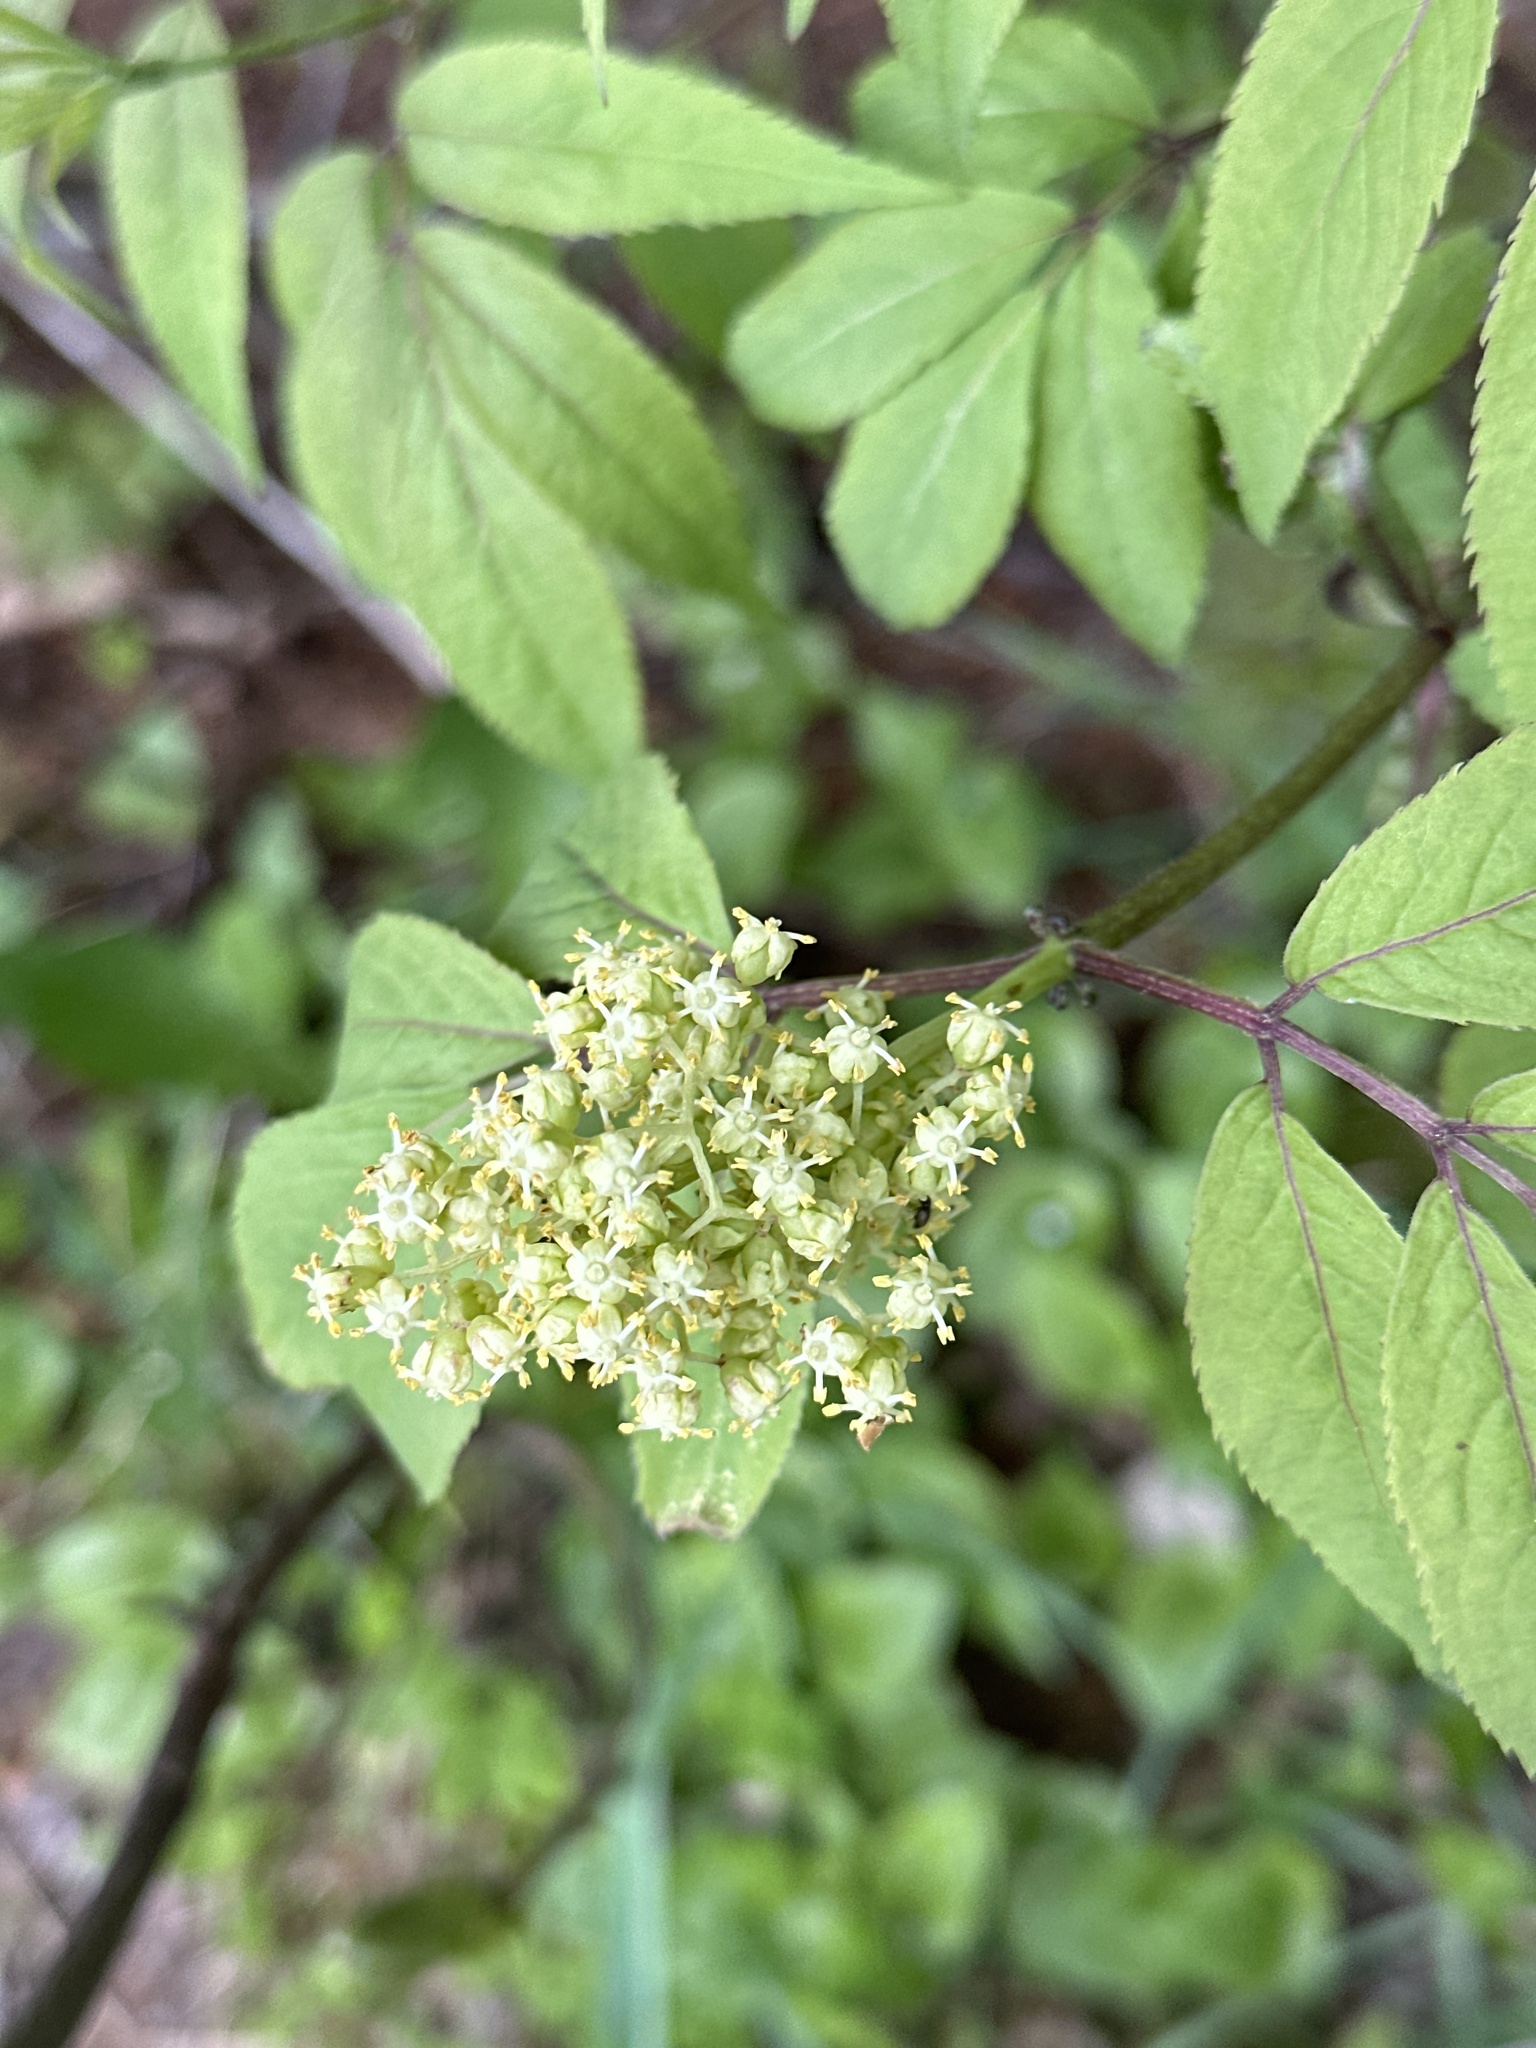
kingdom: Plantae
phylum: Tracheophyta
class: Magnoliopsida
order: Dipsacales
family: Viburnaceae
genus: Sambucus
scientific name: Sambucus racemosa
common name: Red-berried elder
